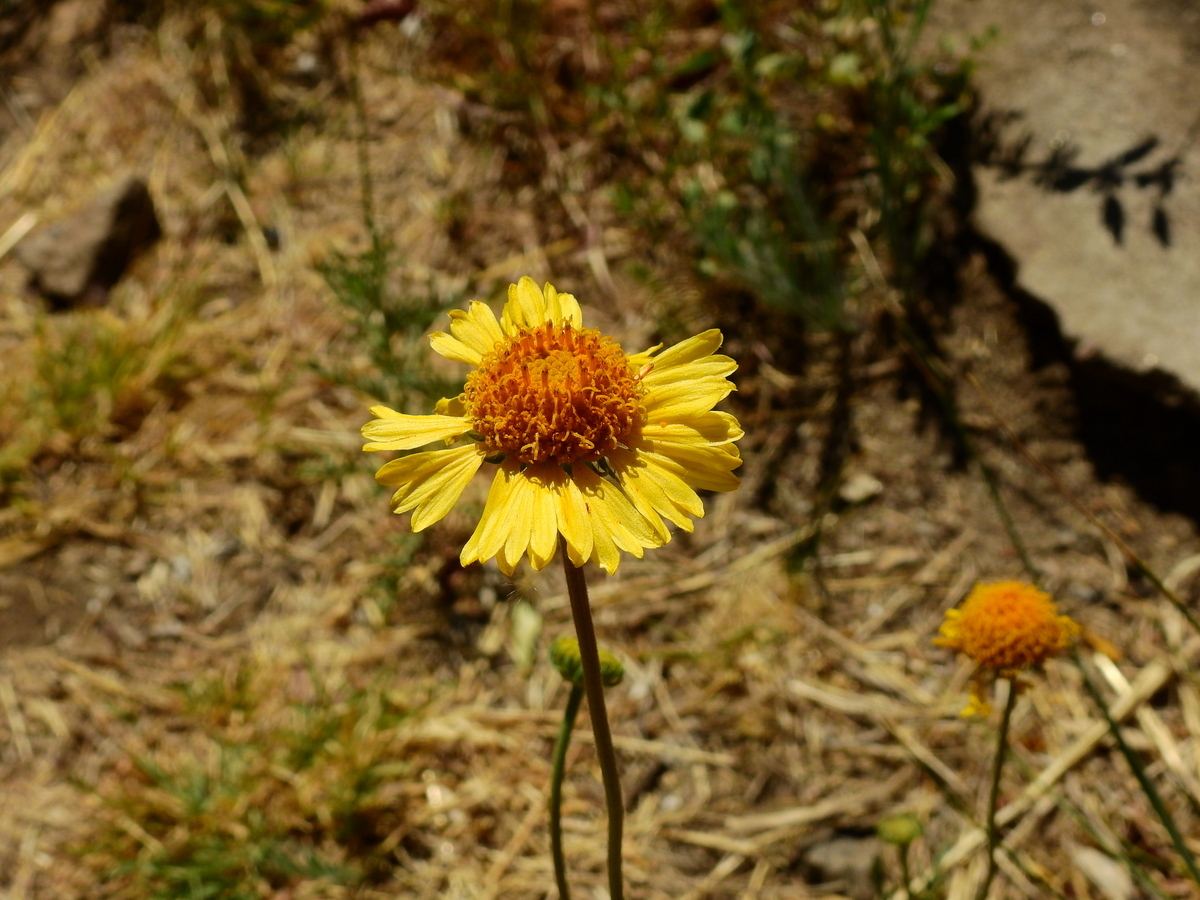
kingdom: Plantae
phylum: Tracheophyta
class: Magnoliopsida
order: Asterales
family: Asteraceae
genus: Gaillardia
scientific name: Gaillardia megapotamica
